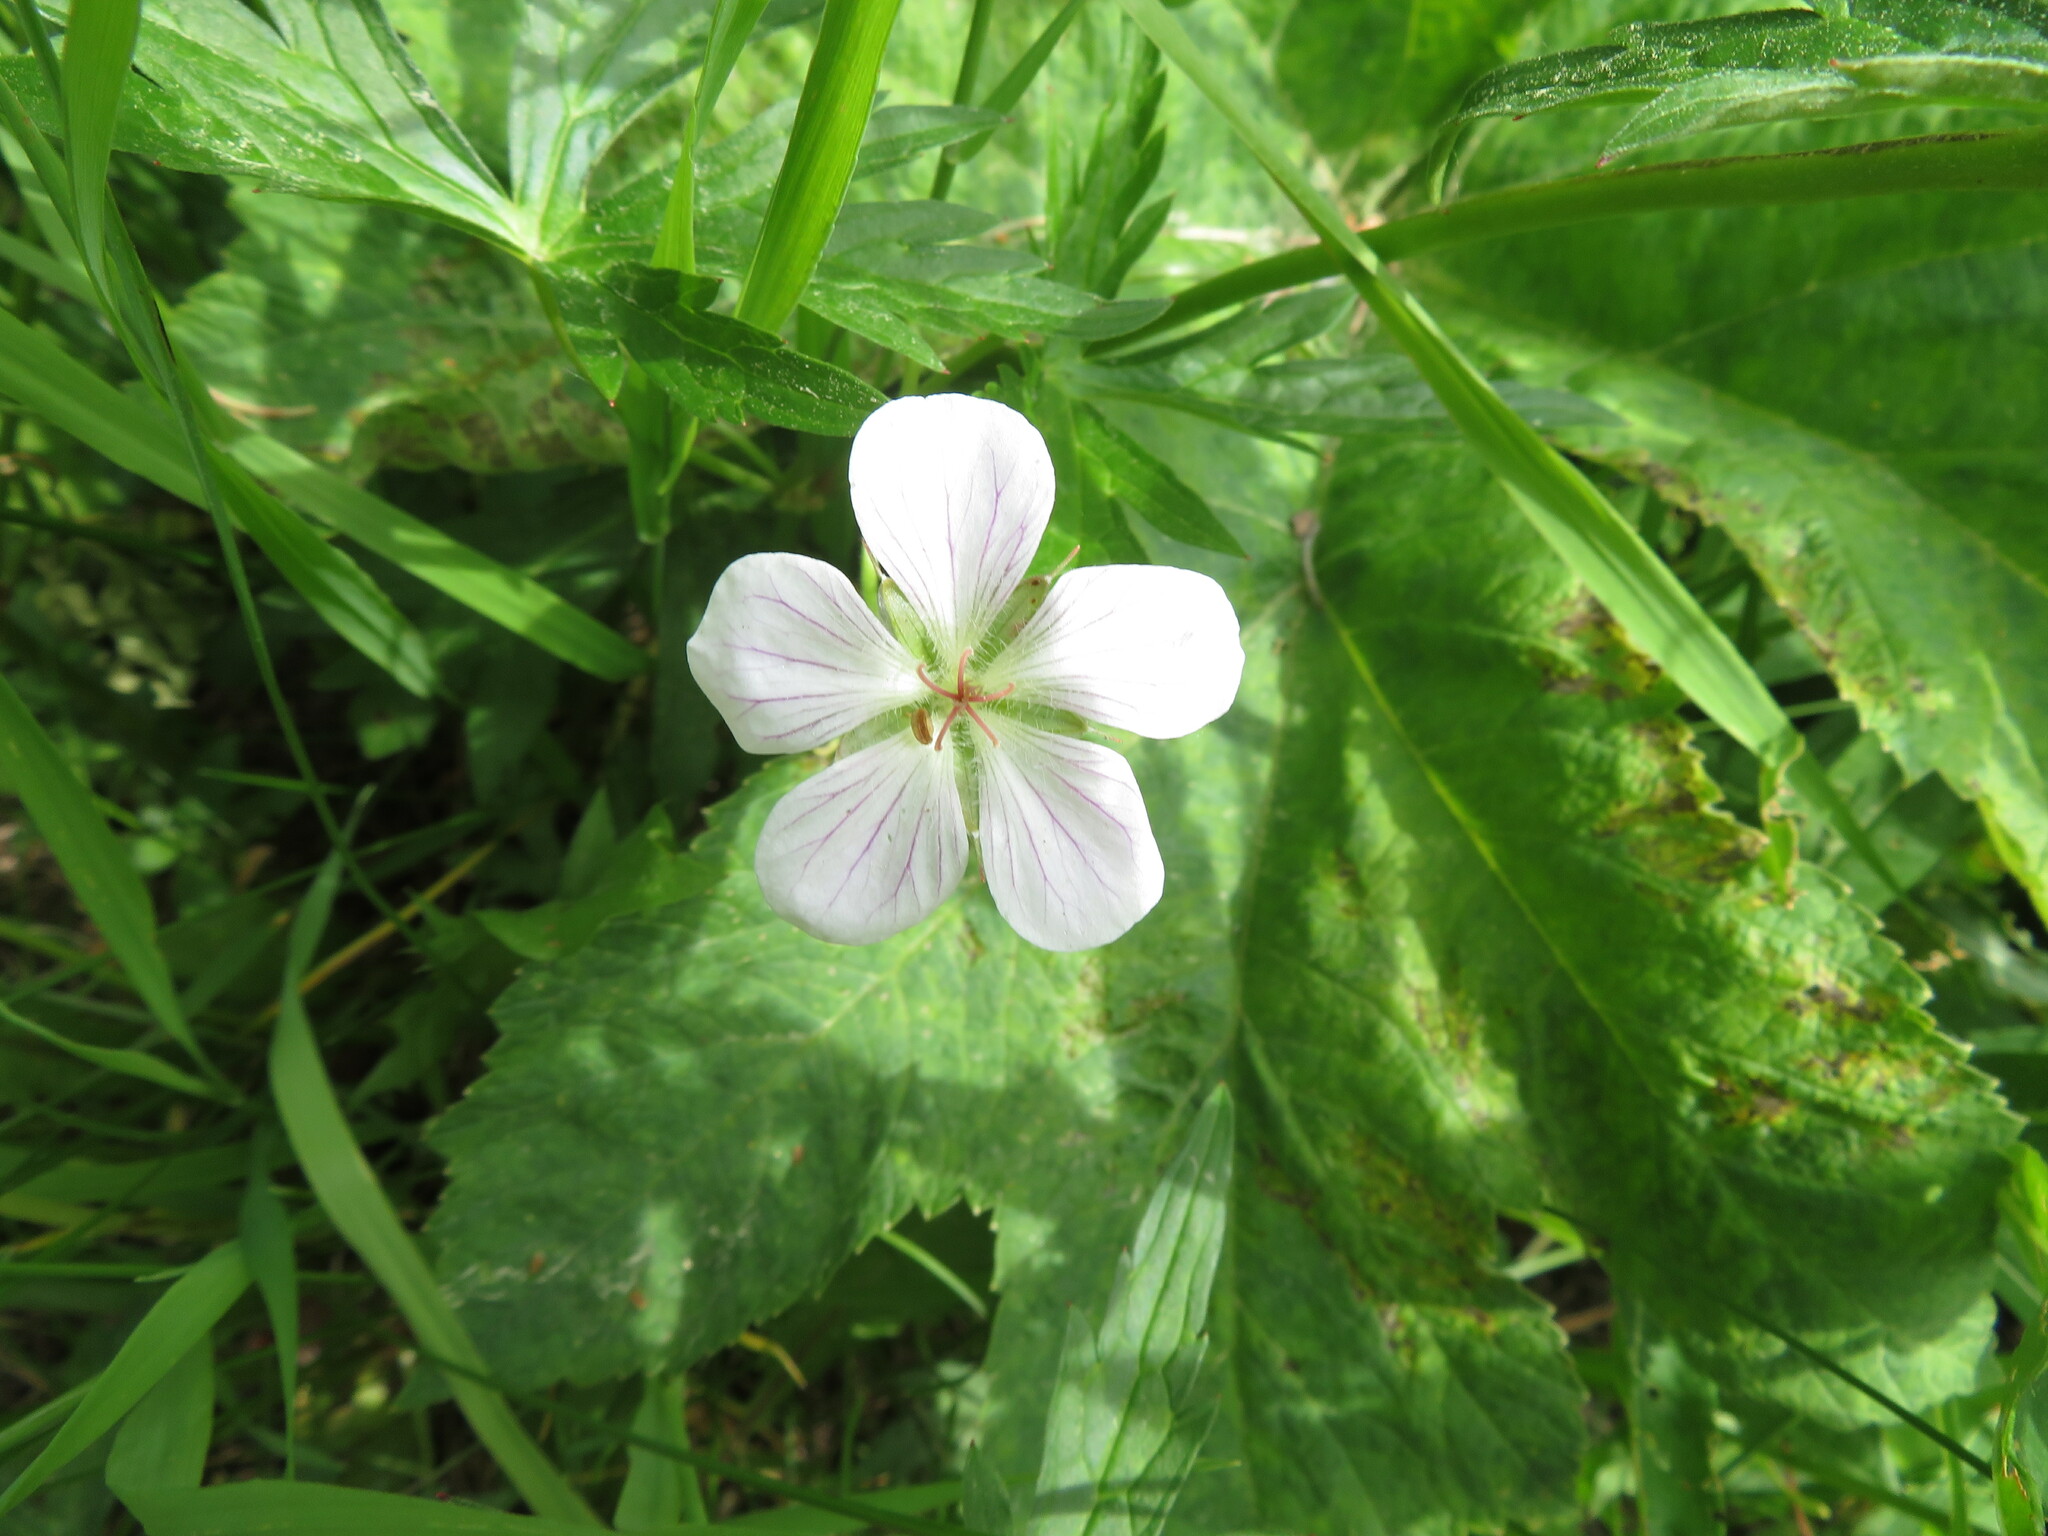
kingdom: Plantae
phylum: Tracheophyta
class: Magnoliopsida
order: Geraniales
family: Geraniaceae
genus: Geranium
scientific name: Geranium richardsonii
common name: Richardson's crane's-bill
